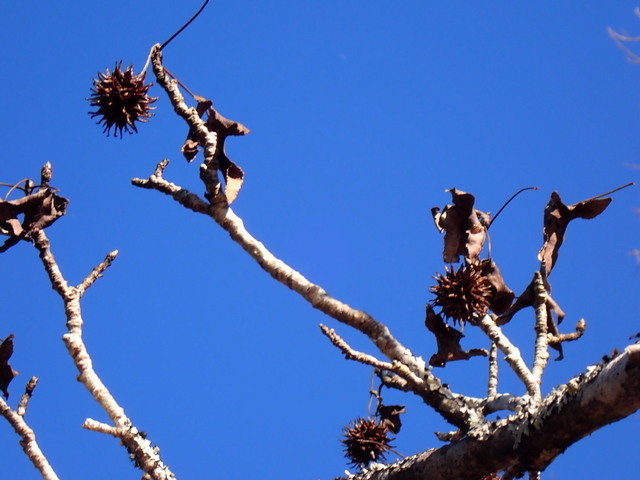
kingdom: Plantae
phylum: Tracheophyta
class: Magnoliopsida
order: Saxifragales
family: Altingiaceae
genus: Liquidambar
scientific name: Liquidambar styraciflua
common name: Sweet gum
